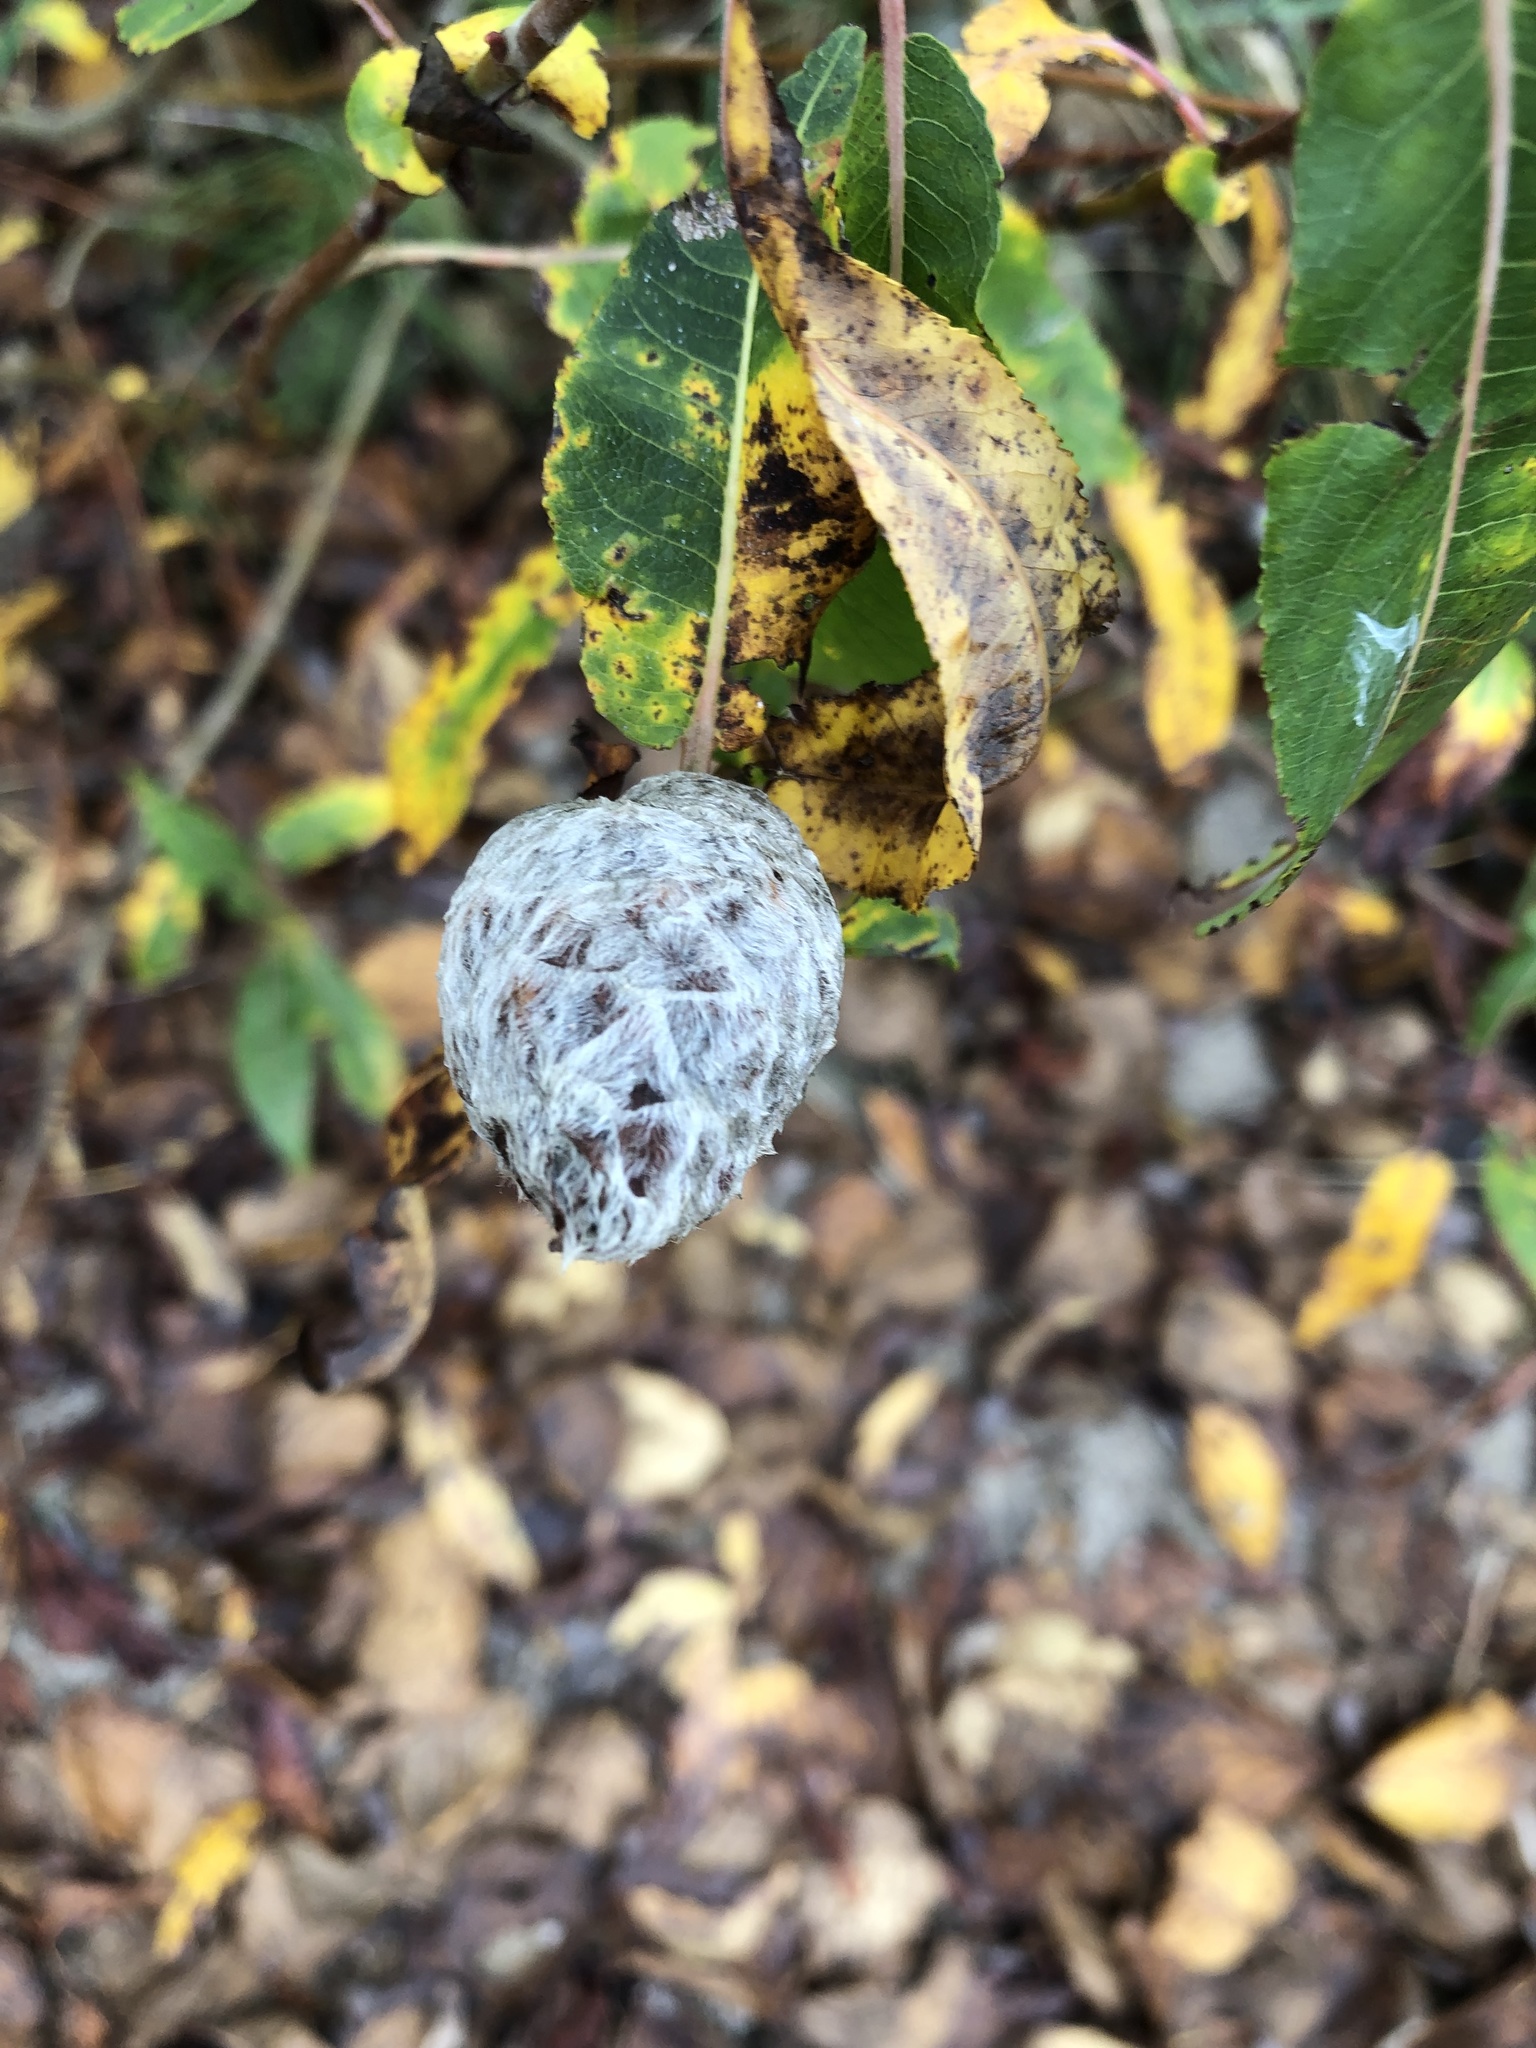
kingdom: Animalia
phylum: Arthropoda
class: Insecta
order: Diptera
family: Cecidomyiidae
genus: Rabdophaga
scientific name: Rabdophaga strobiloides
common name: Willow pinecone gall midge
